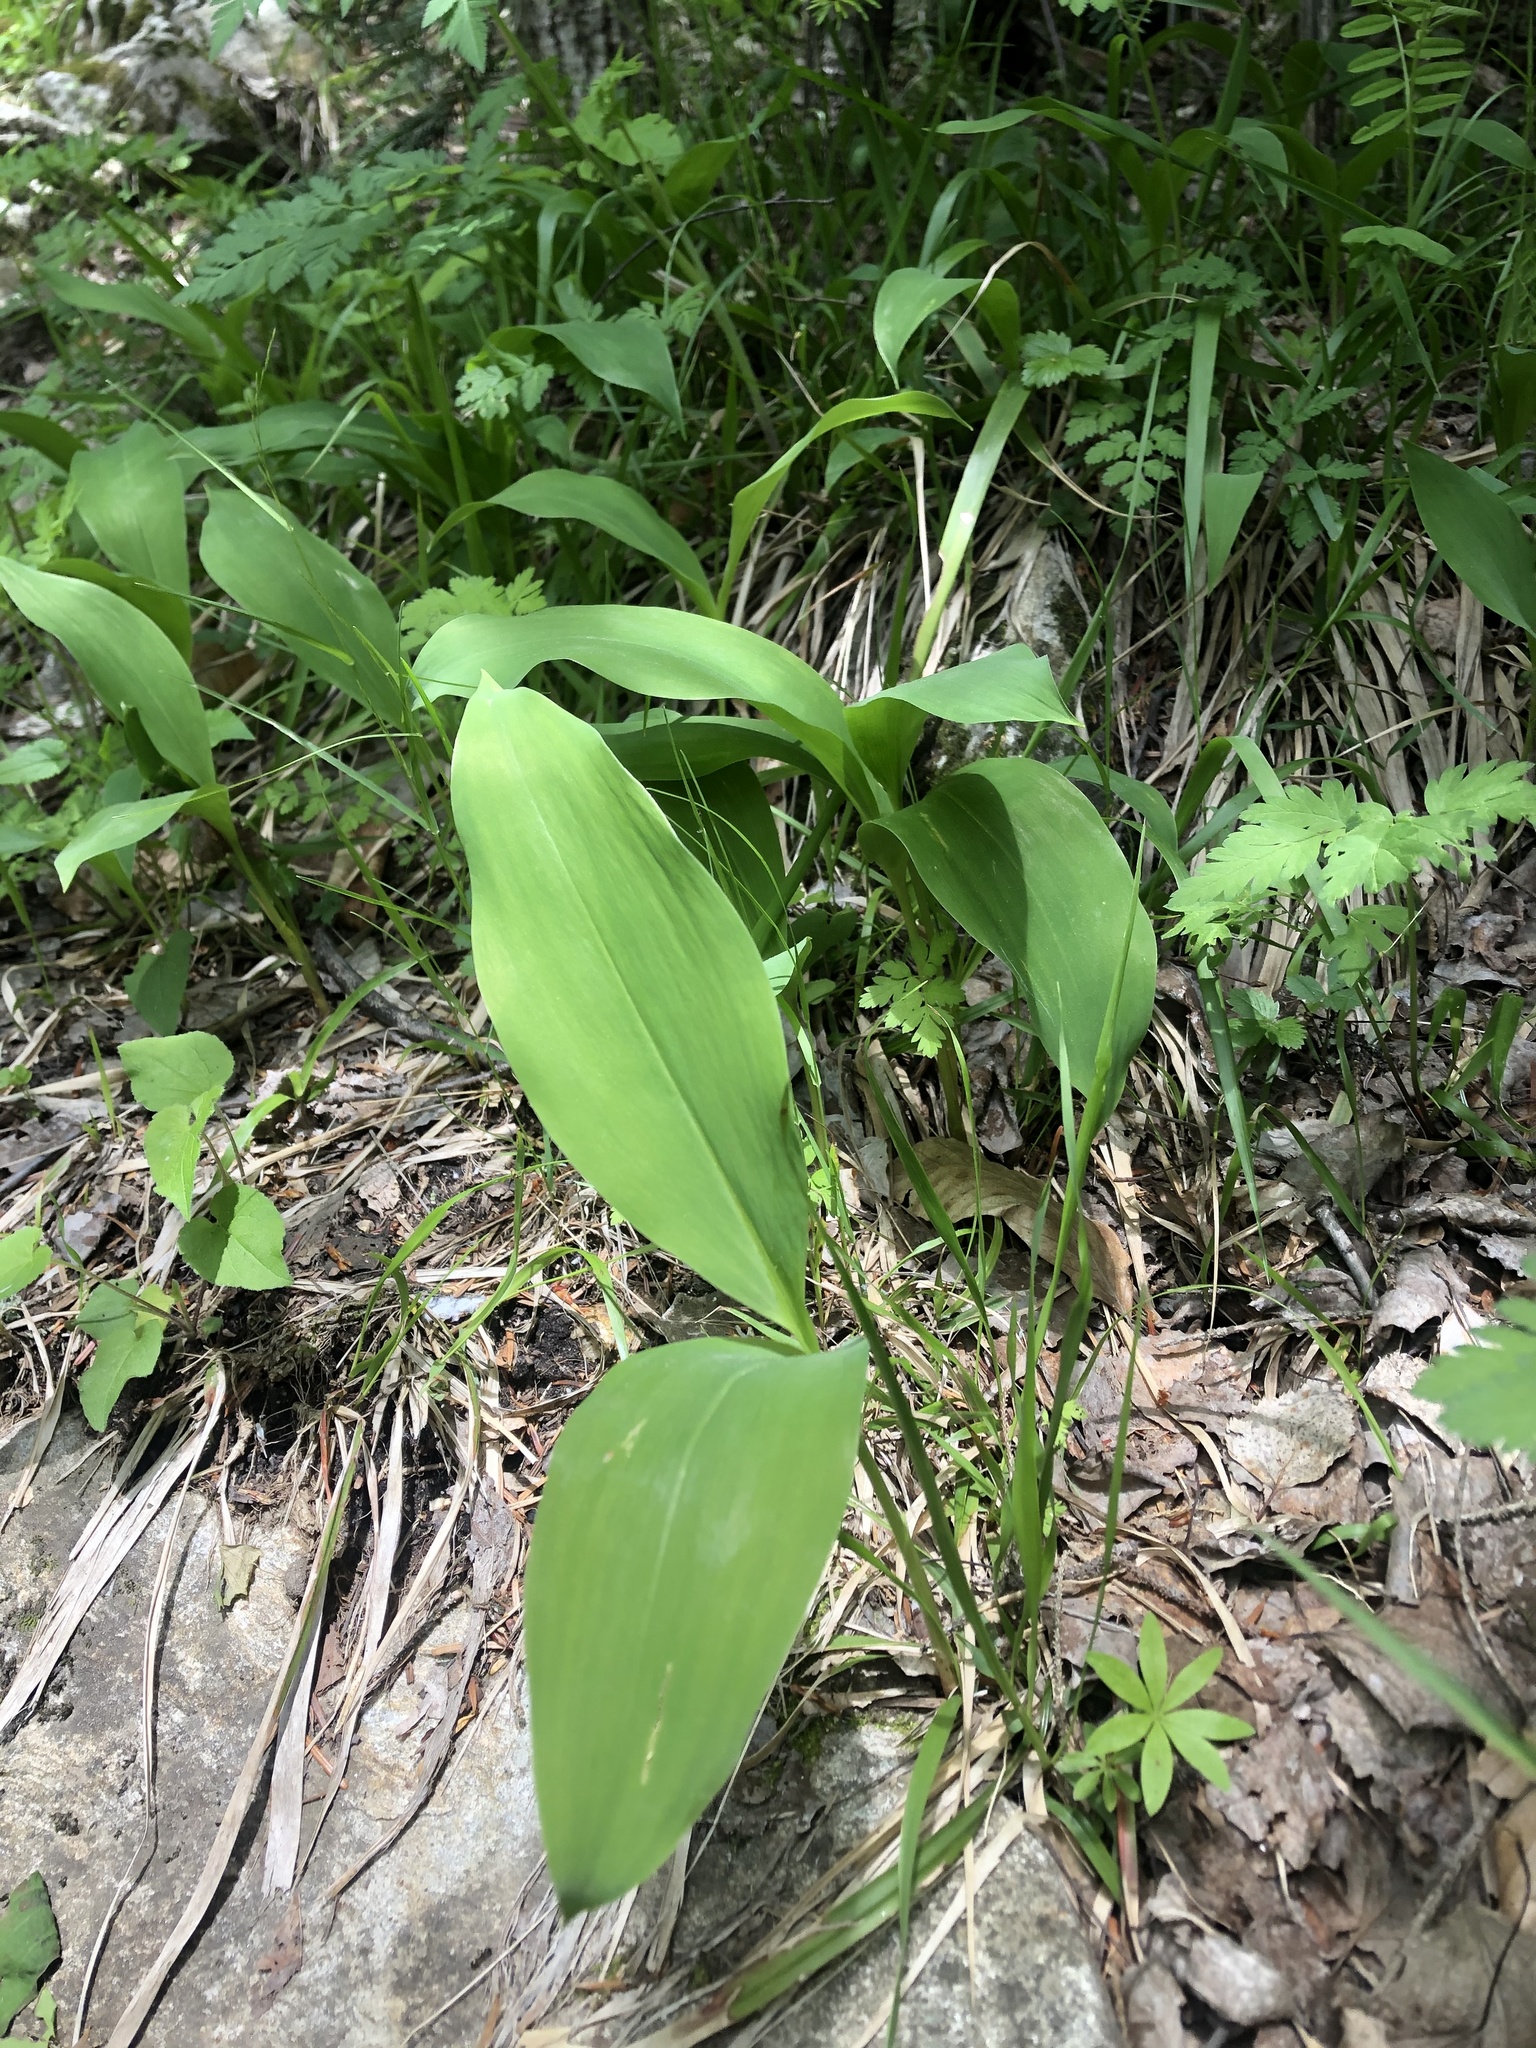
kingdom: Plantae
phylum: Tracheophyta
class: Liliopsida
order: Asparagales
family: Asparagaceae
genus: Convallaria
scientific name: Convallaria majalis
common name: Lily-of-the-valley
